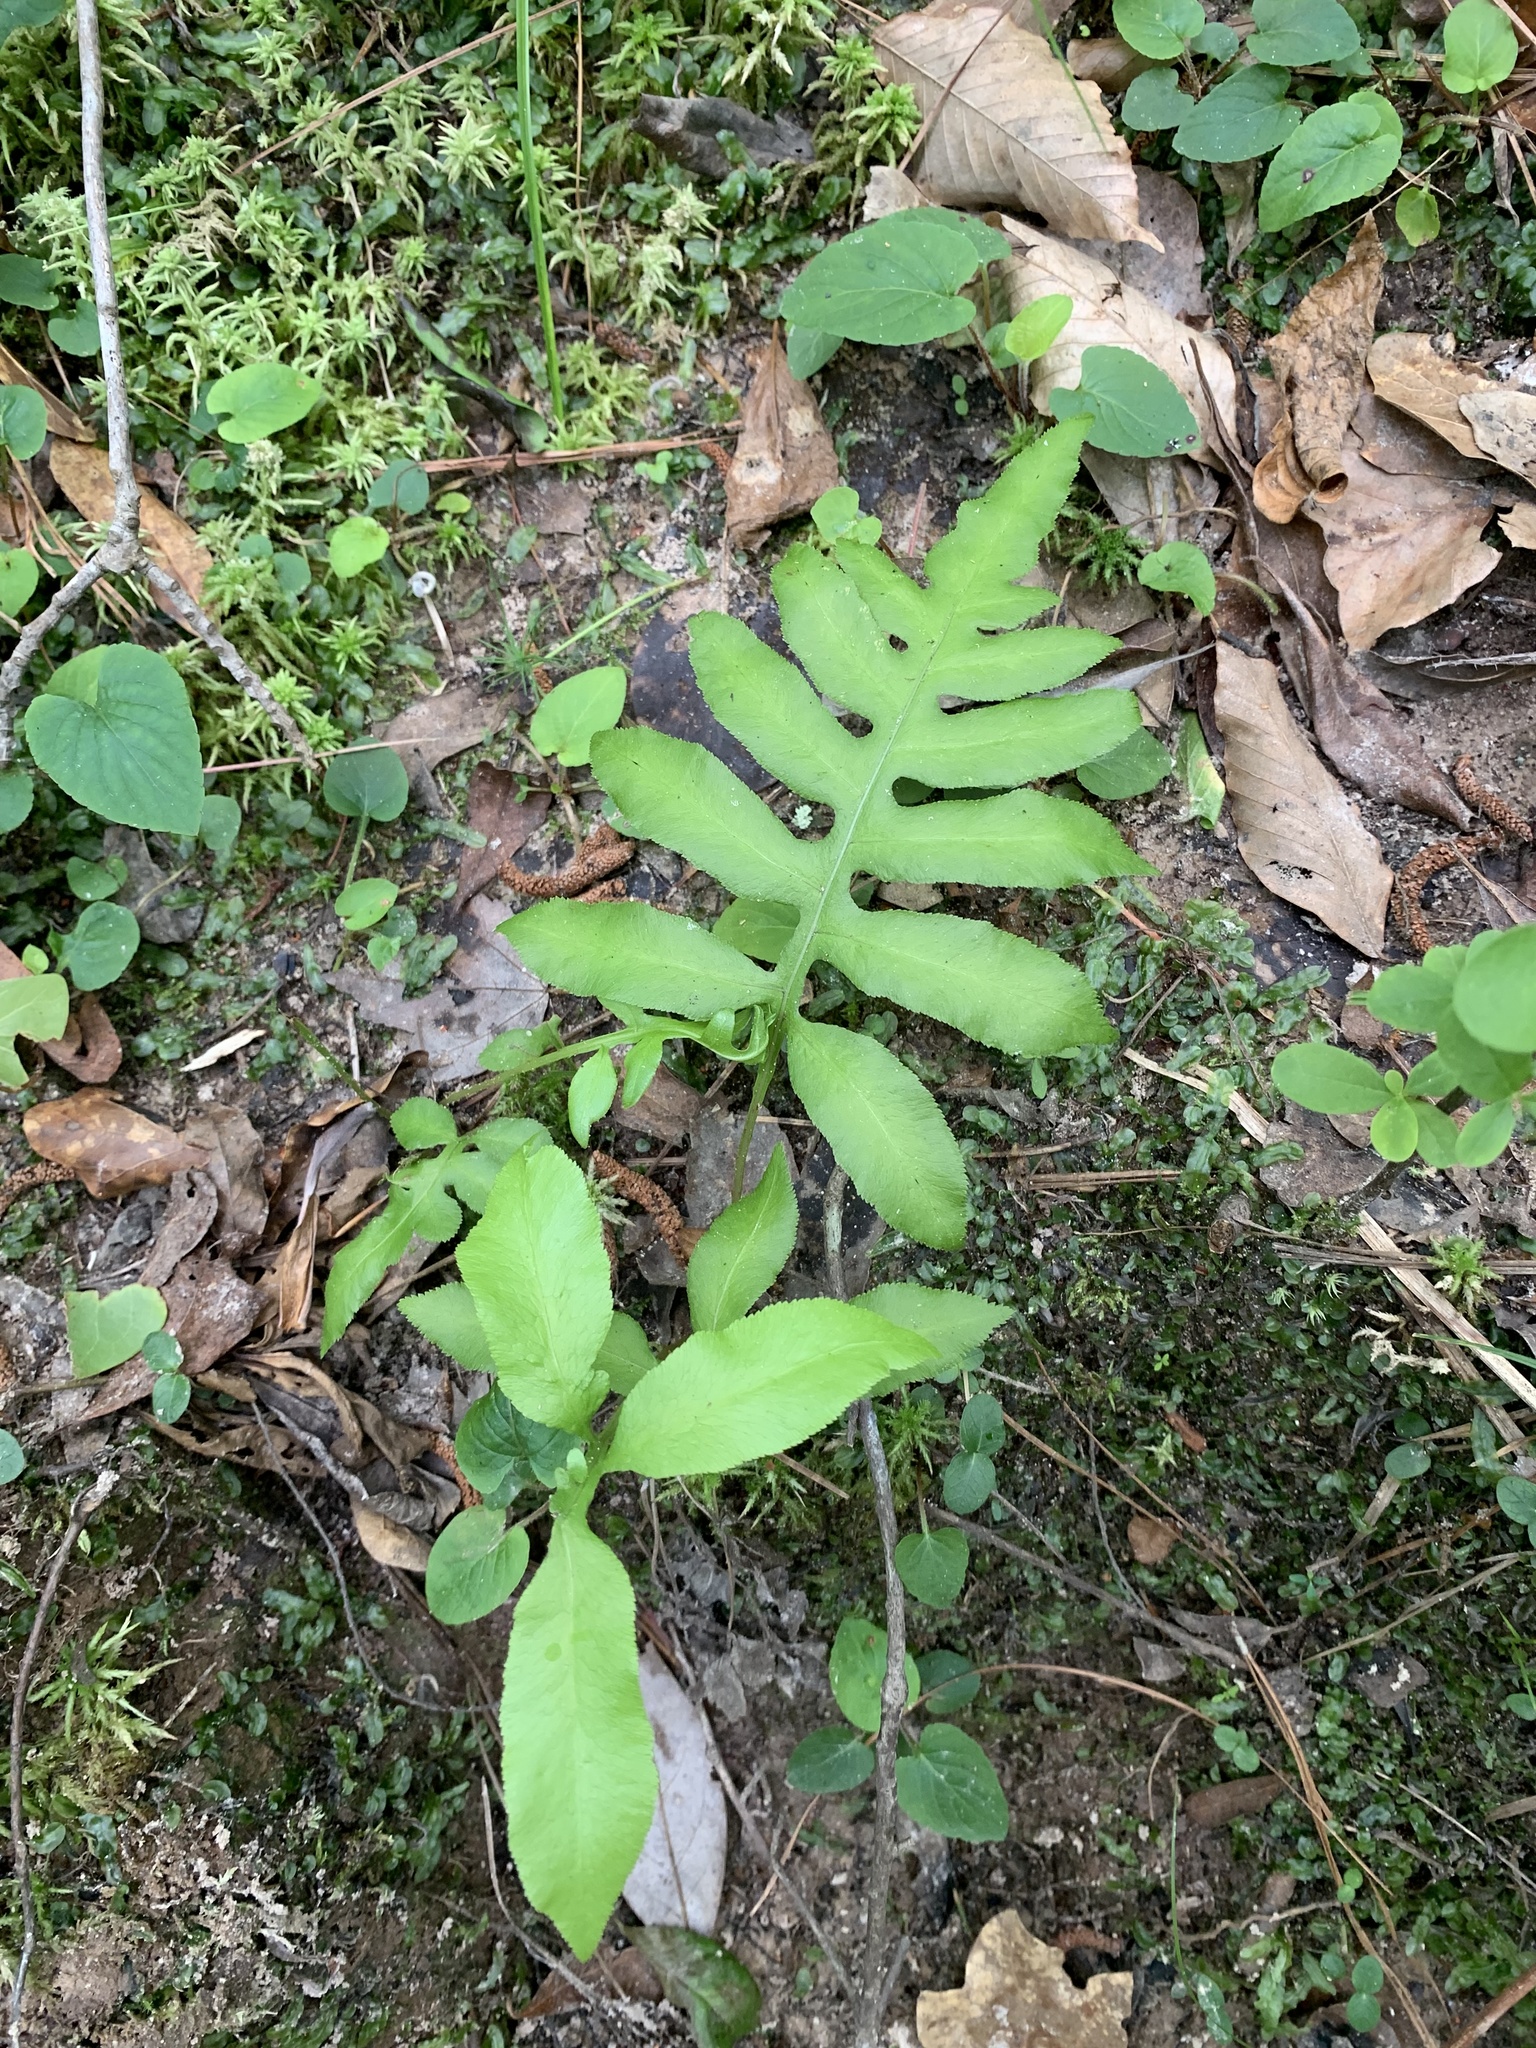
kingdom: Plantae
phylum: Tracheophyta
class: Polypodiopsida
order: Polypodiales
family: Blechnaceae
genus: Lorinseria
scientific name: Lorinseria areolata
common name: Dwarf chain fern
